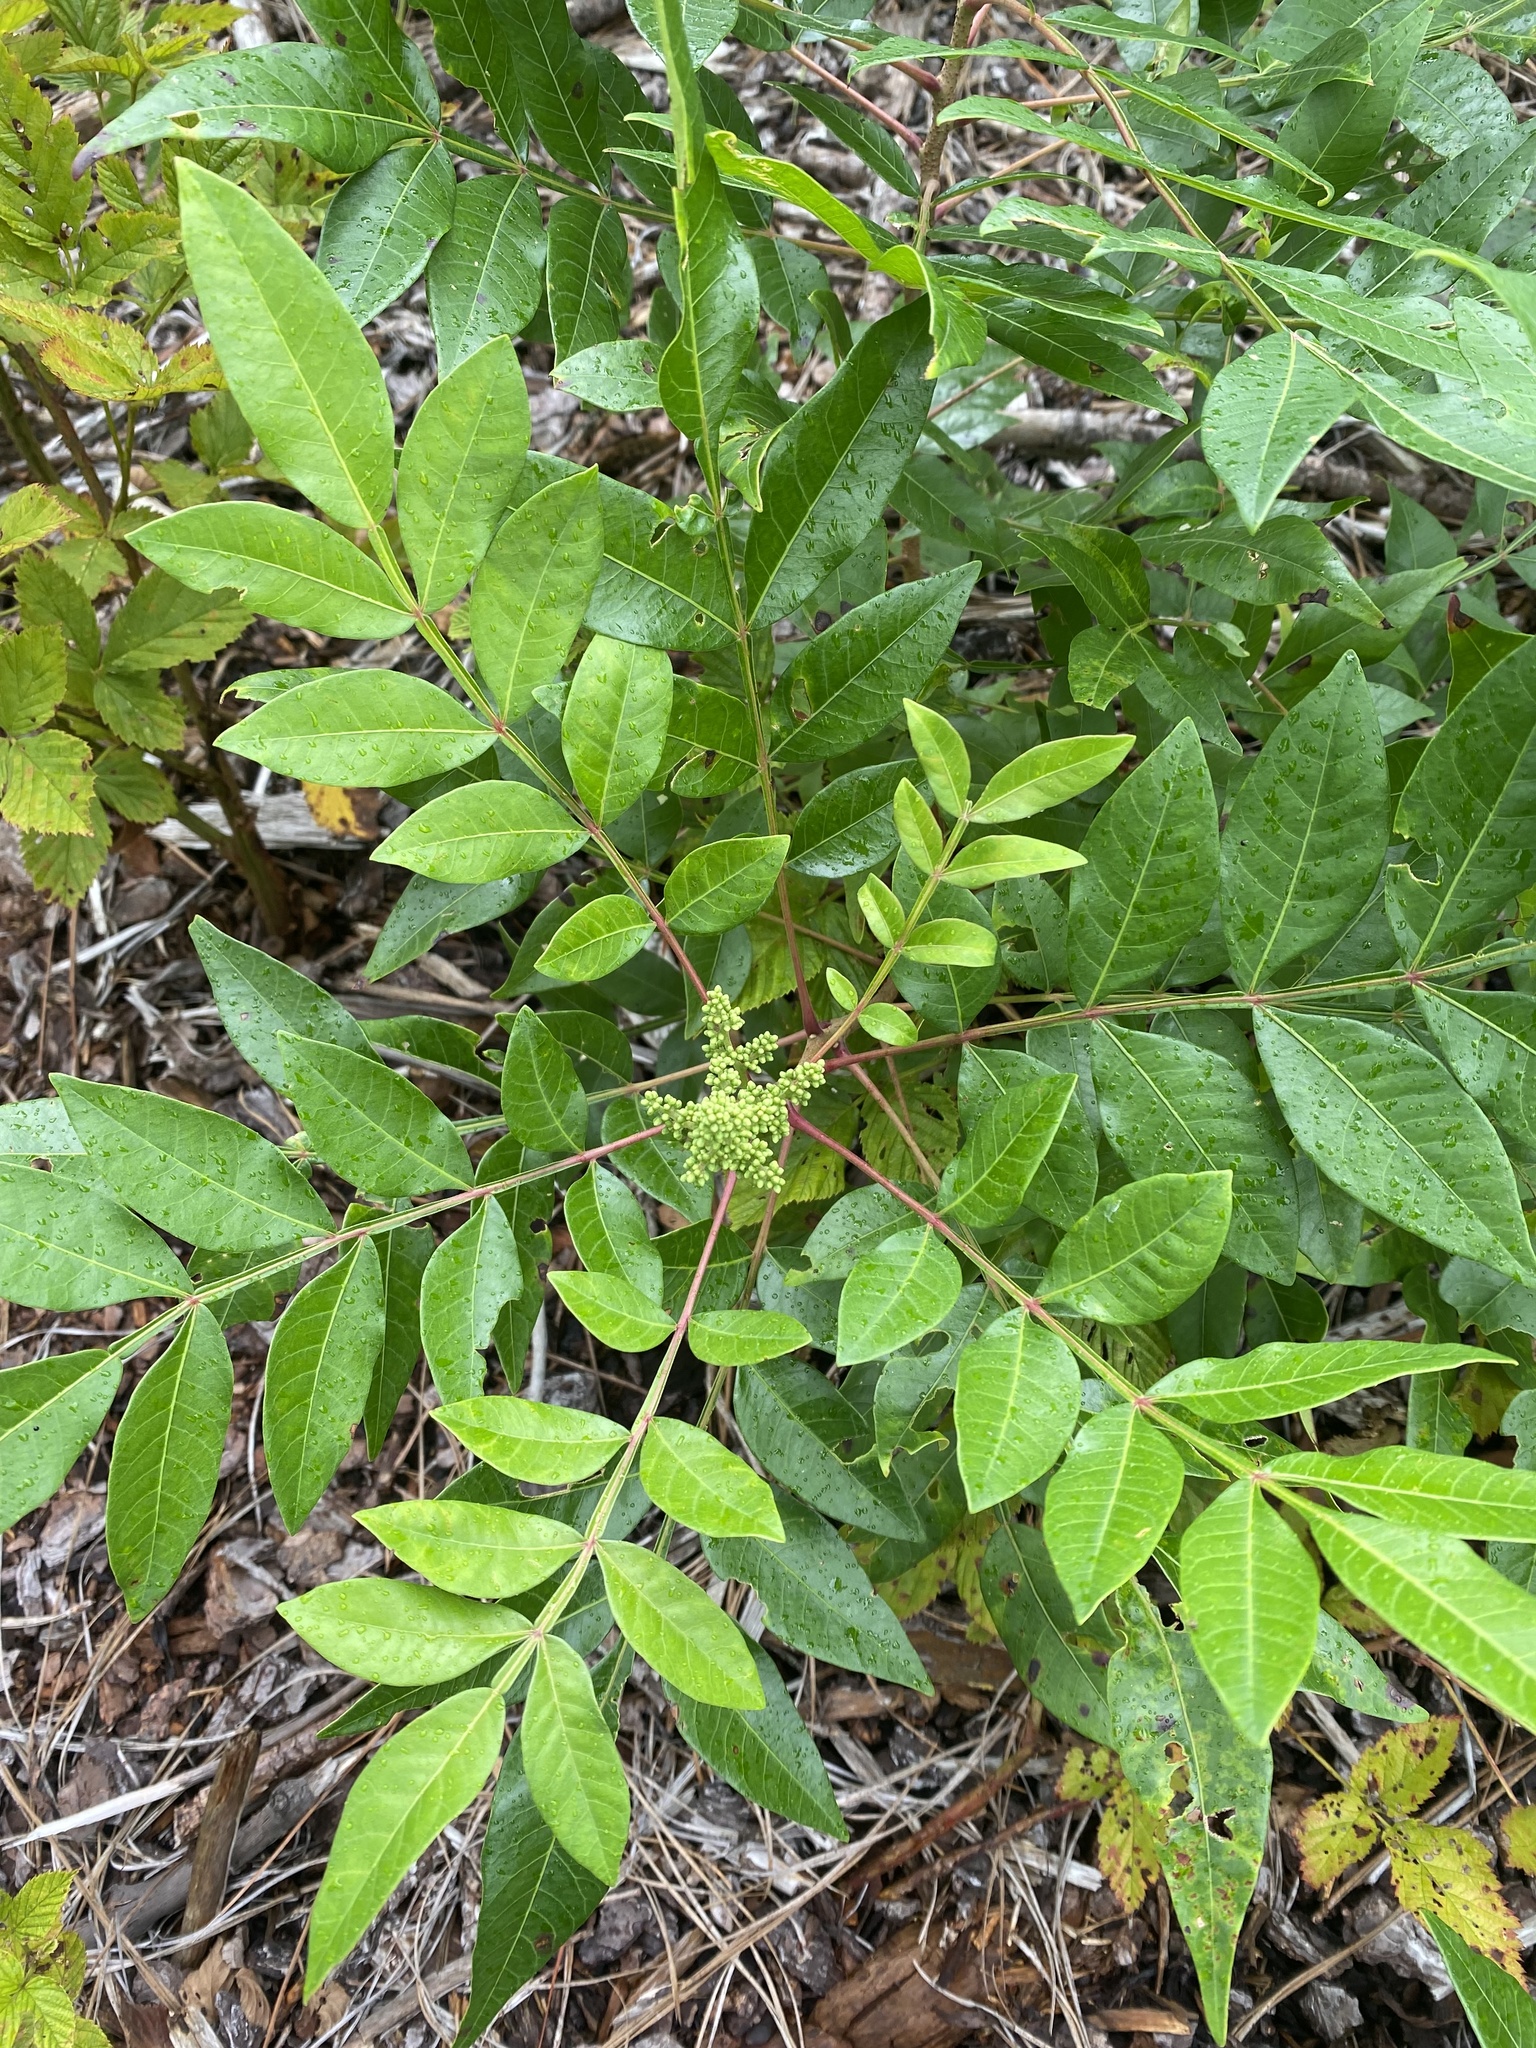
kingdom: Plantae
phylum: Tracheophyta
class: Magnoliopsida
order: Sapindales
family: Anacardiaceae
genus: Rhus
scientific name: Rhus copallina
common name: Shining sumac
